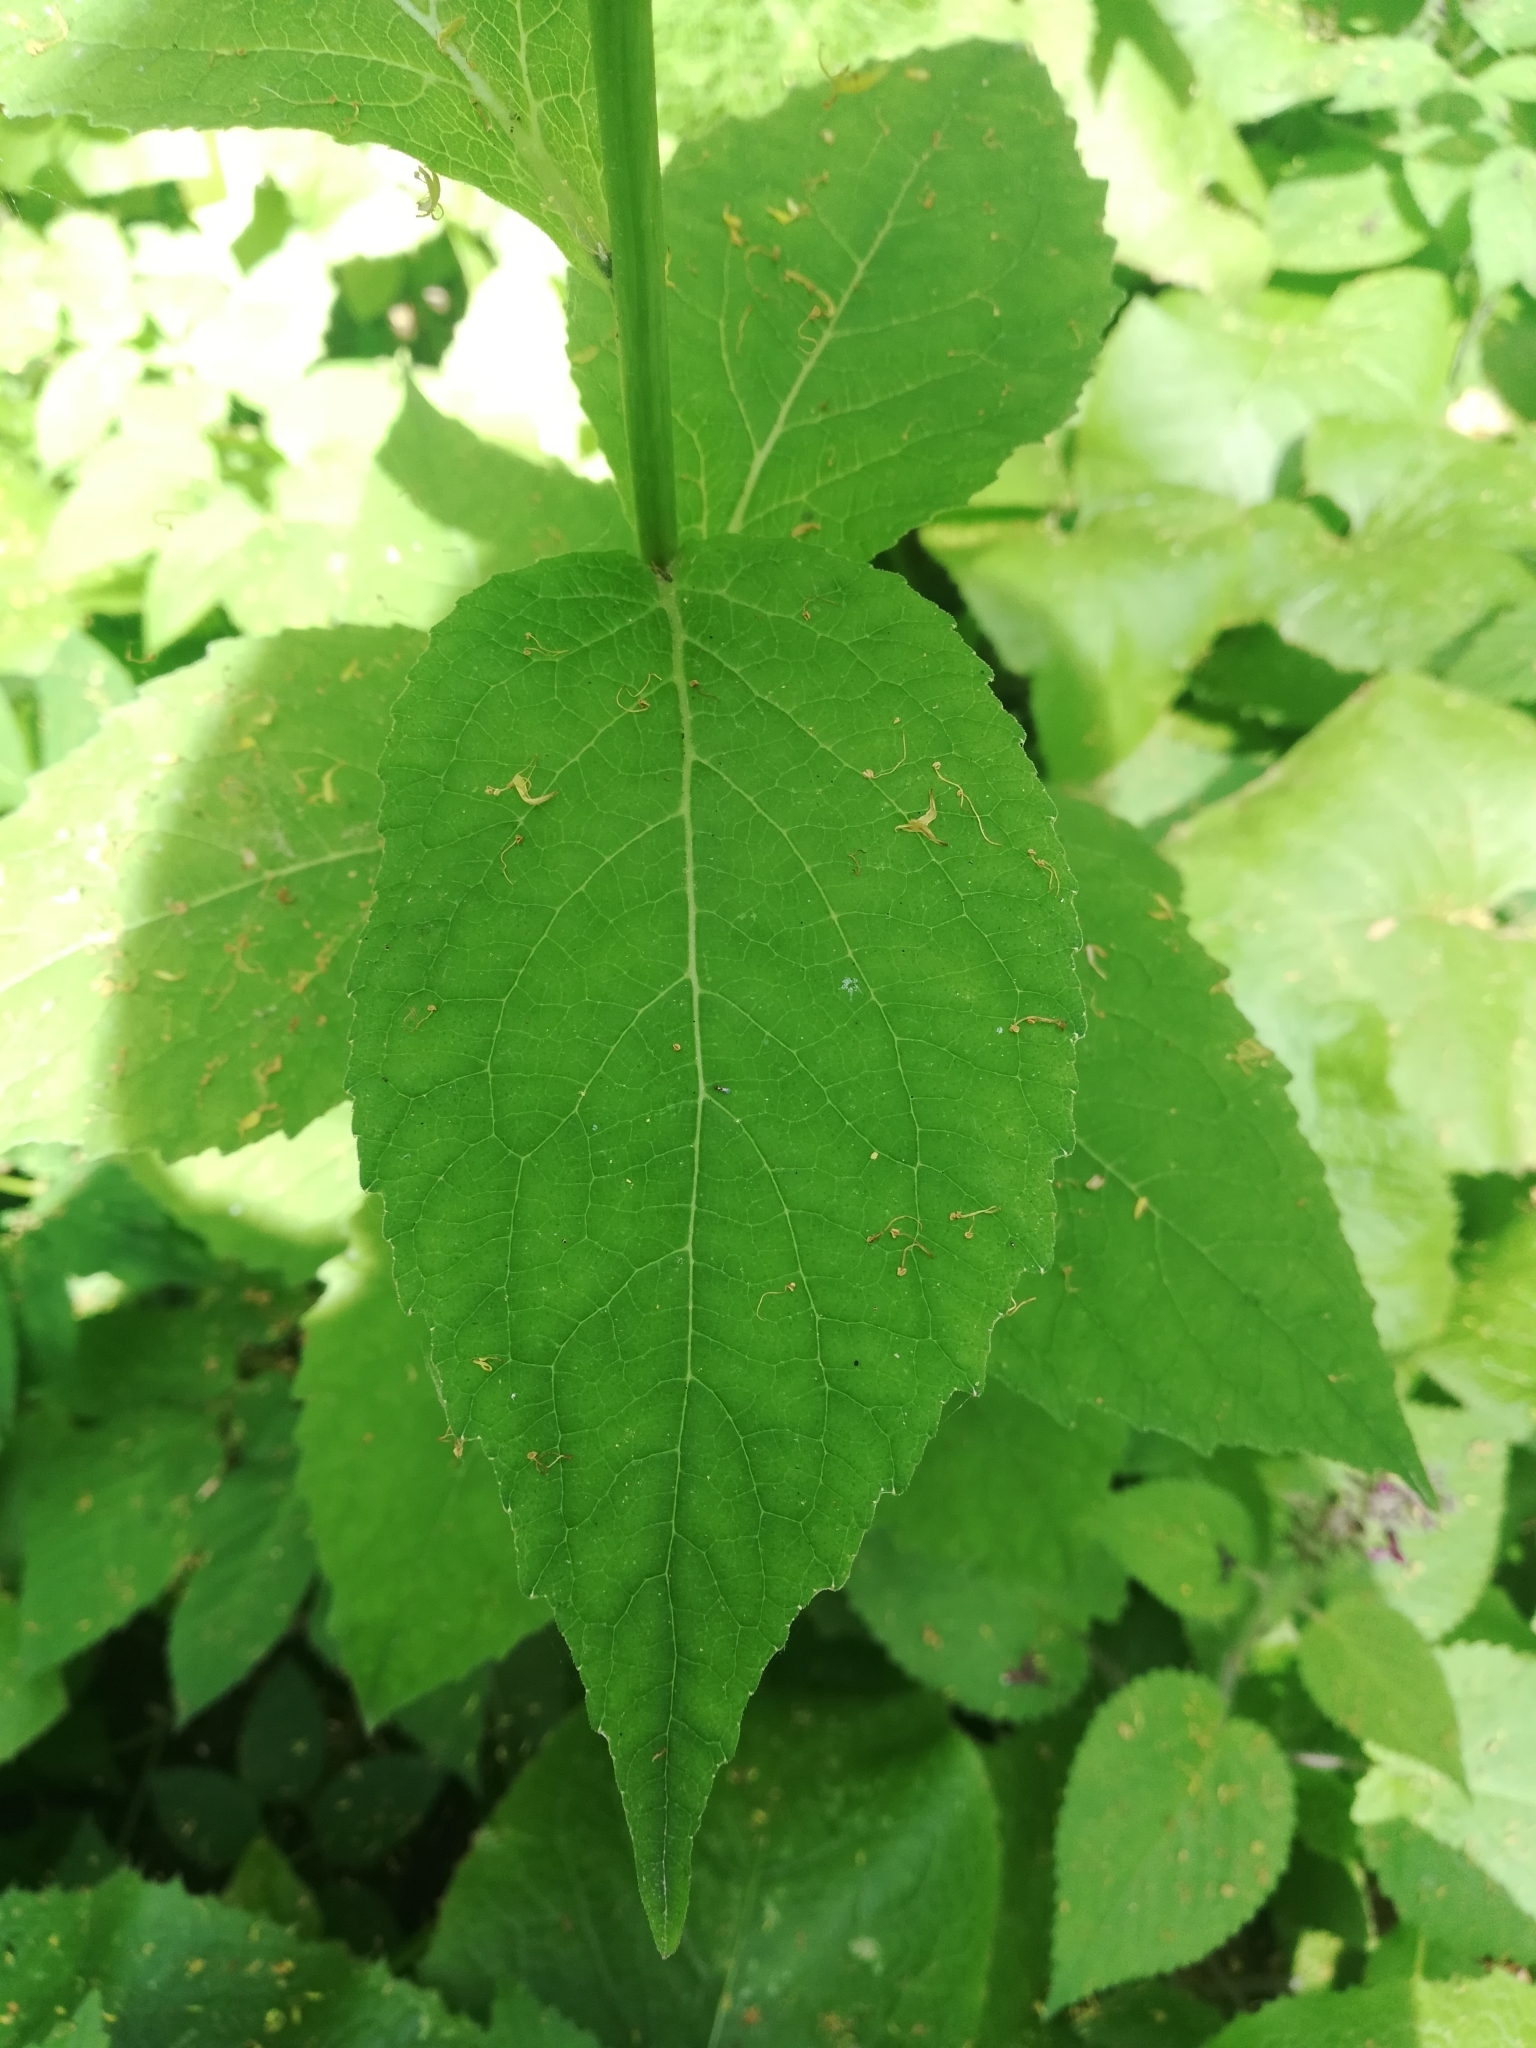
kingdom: Plantae
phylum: Tracheophyta
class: Magnoliopsida
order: Asterales
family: Campanulaceae
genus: Campanula
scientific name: Campanula latifolia
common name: Giant bellflower
